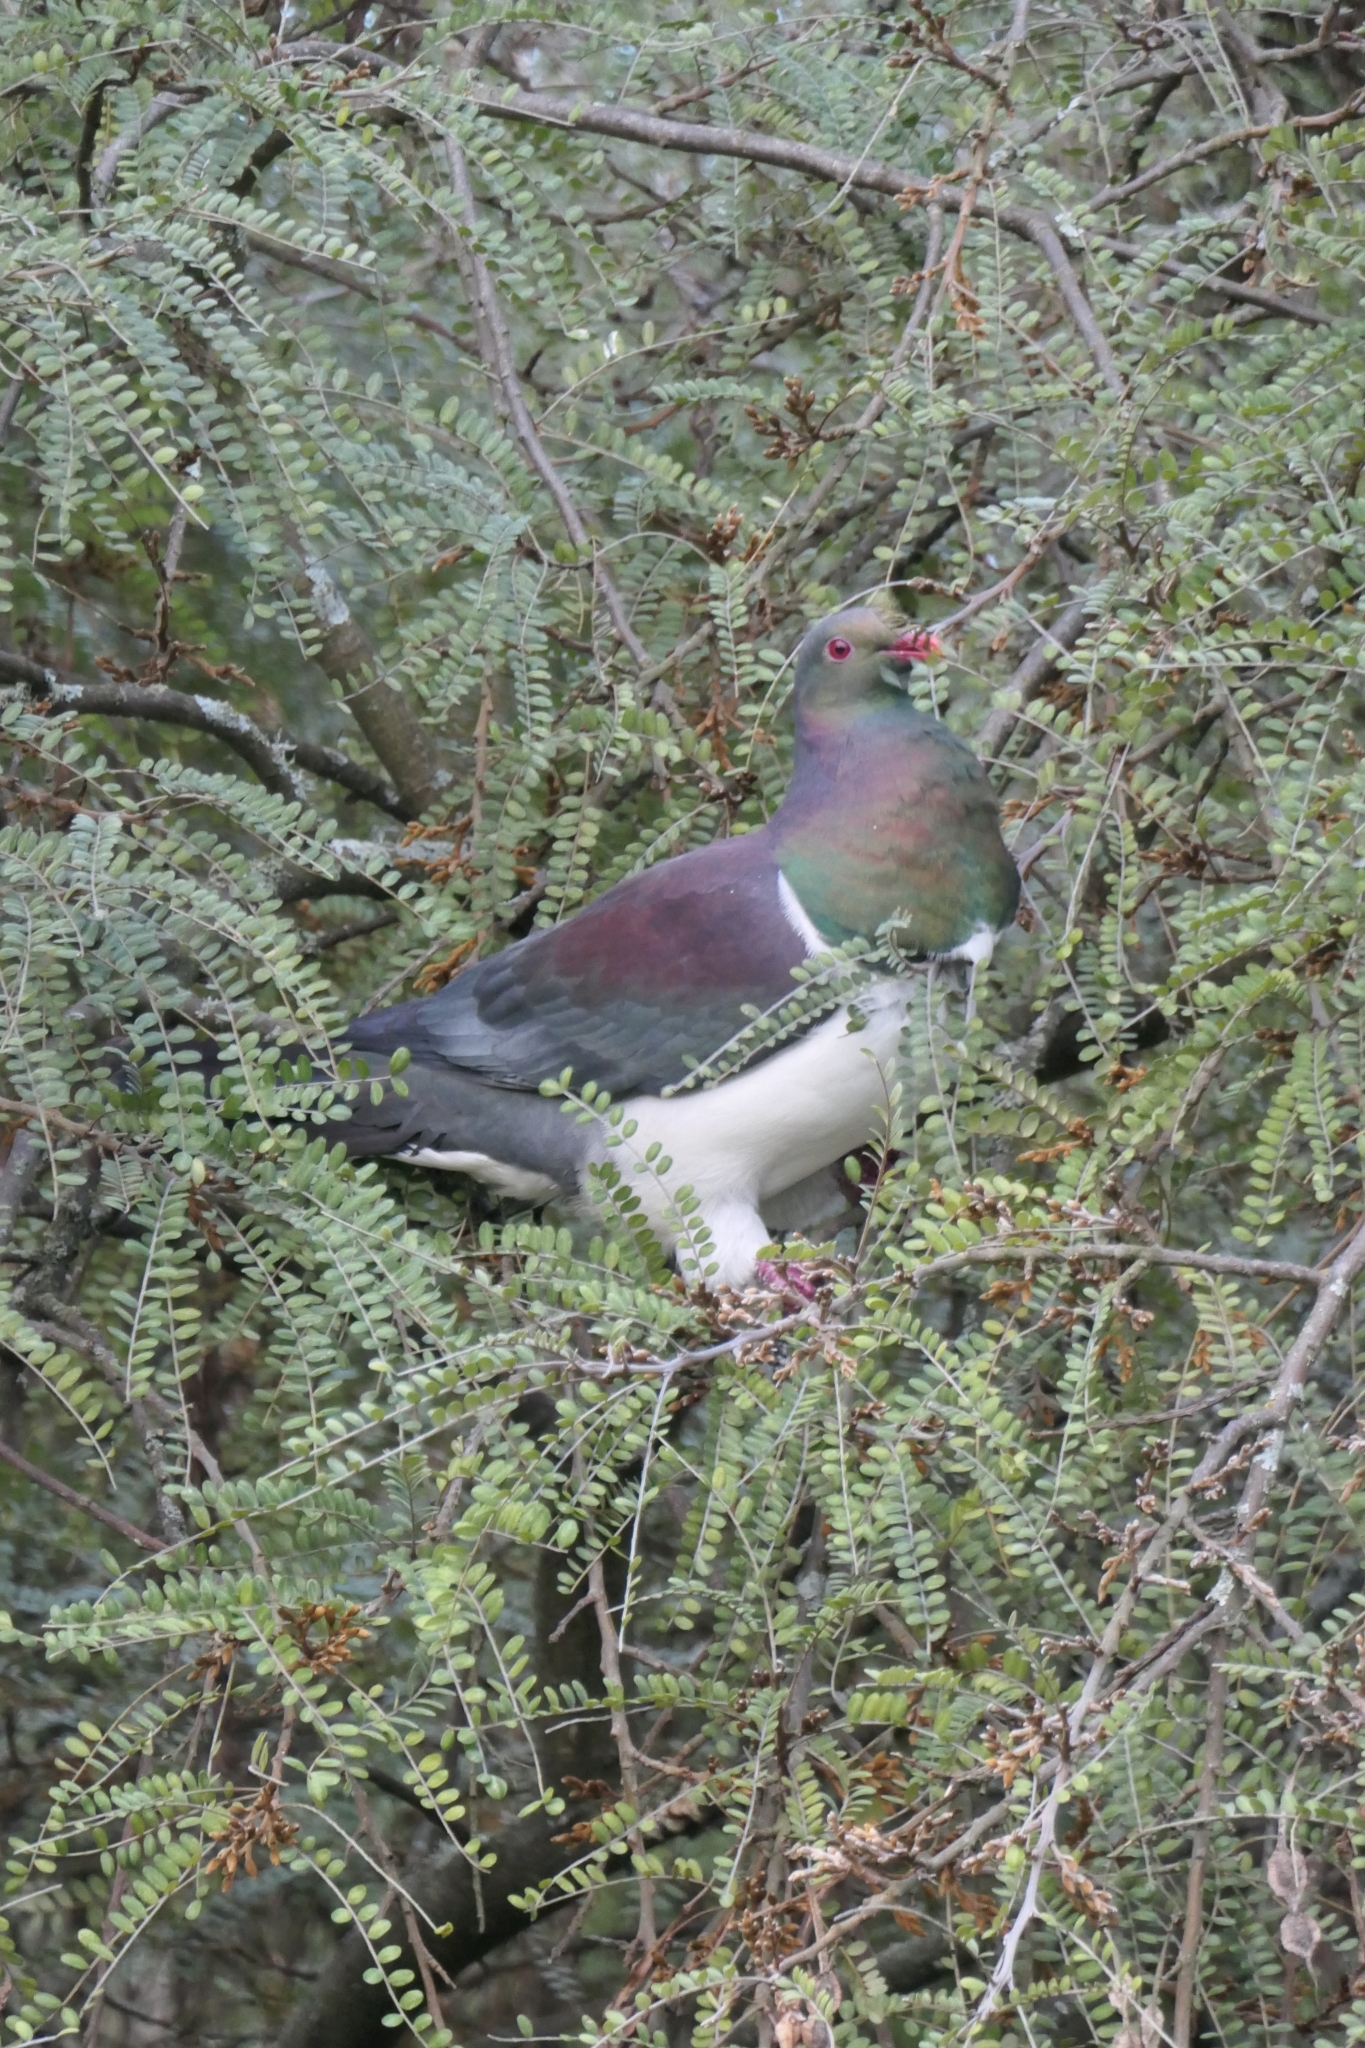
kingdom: Animalia
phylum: Chordata
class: Aves
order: Columbiformes
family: Columbidae
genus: Hemiphaga
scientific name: Hemiphaga novaeseelandiae
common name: New zealand pigeon
